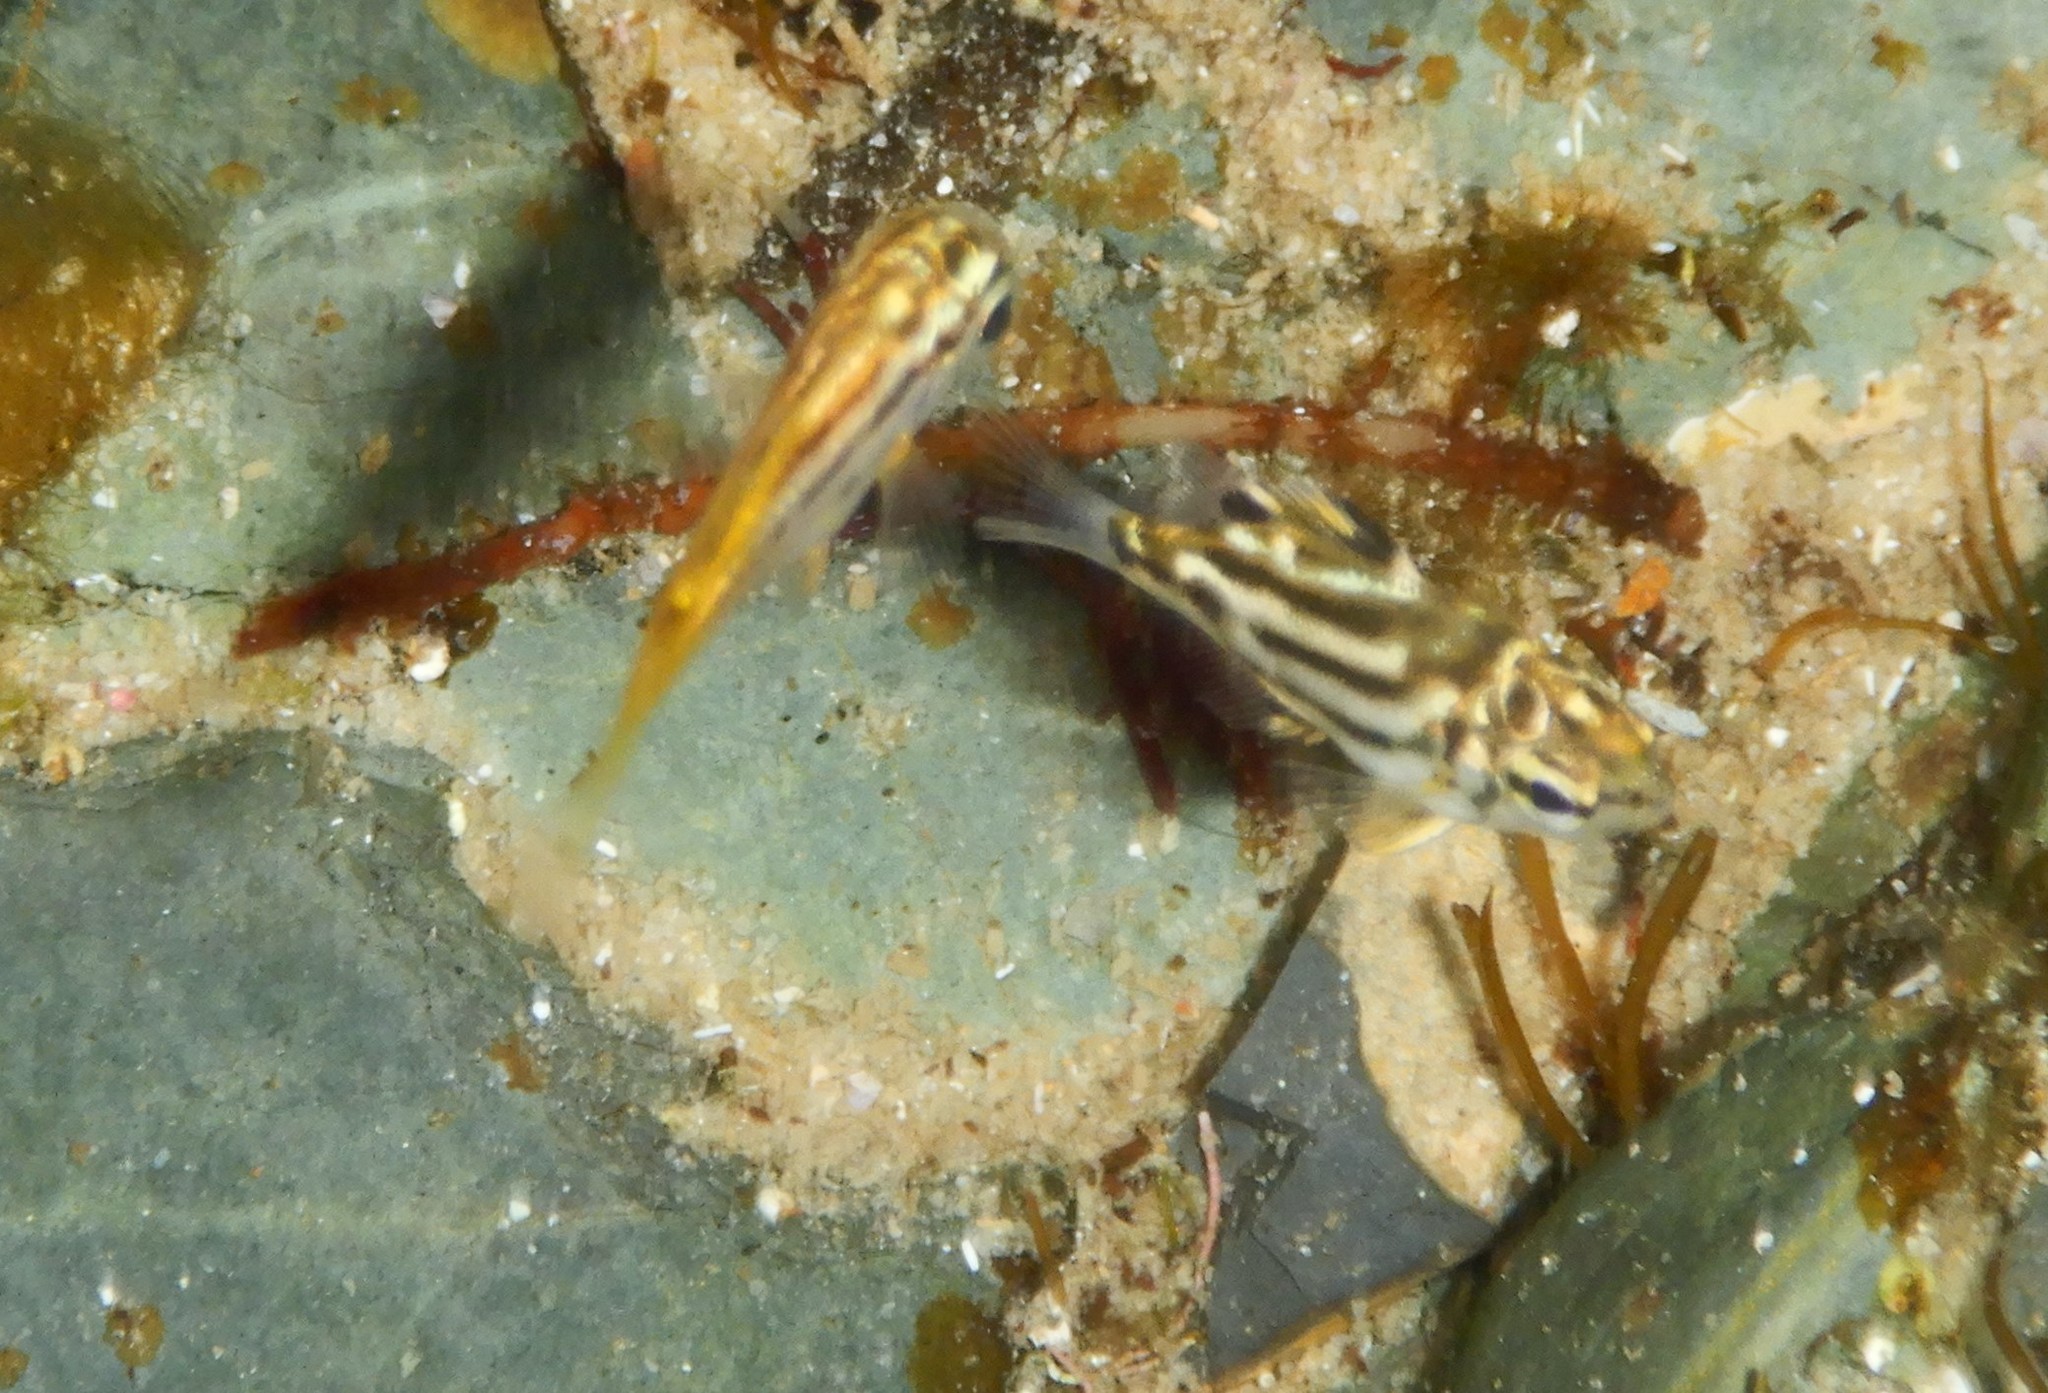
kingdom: Animalia
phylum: Chordata
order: Perciformes
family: Kyphosidae
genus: Microcanthus
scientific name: Microcanthus joyceae
